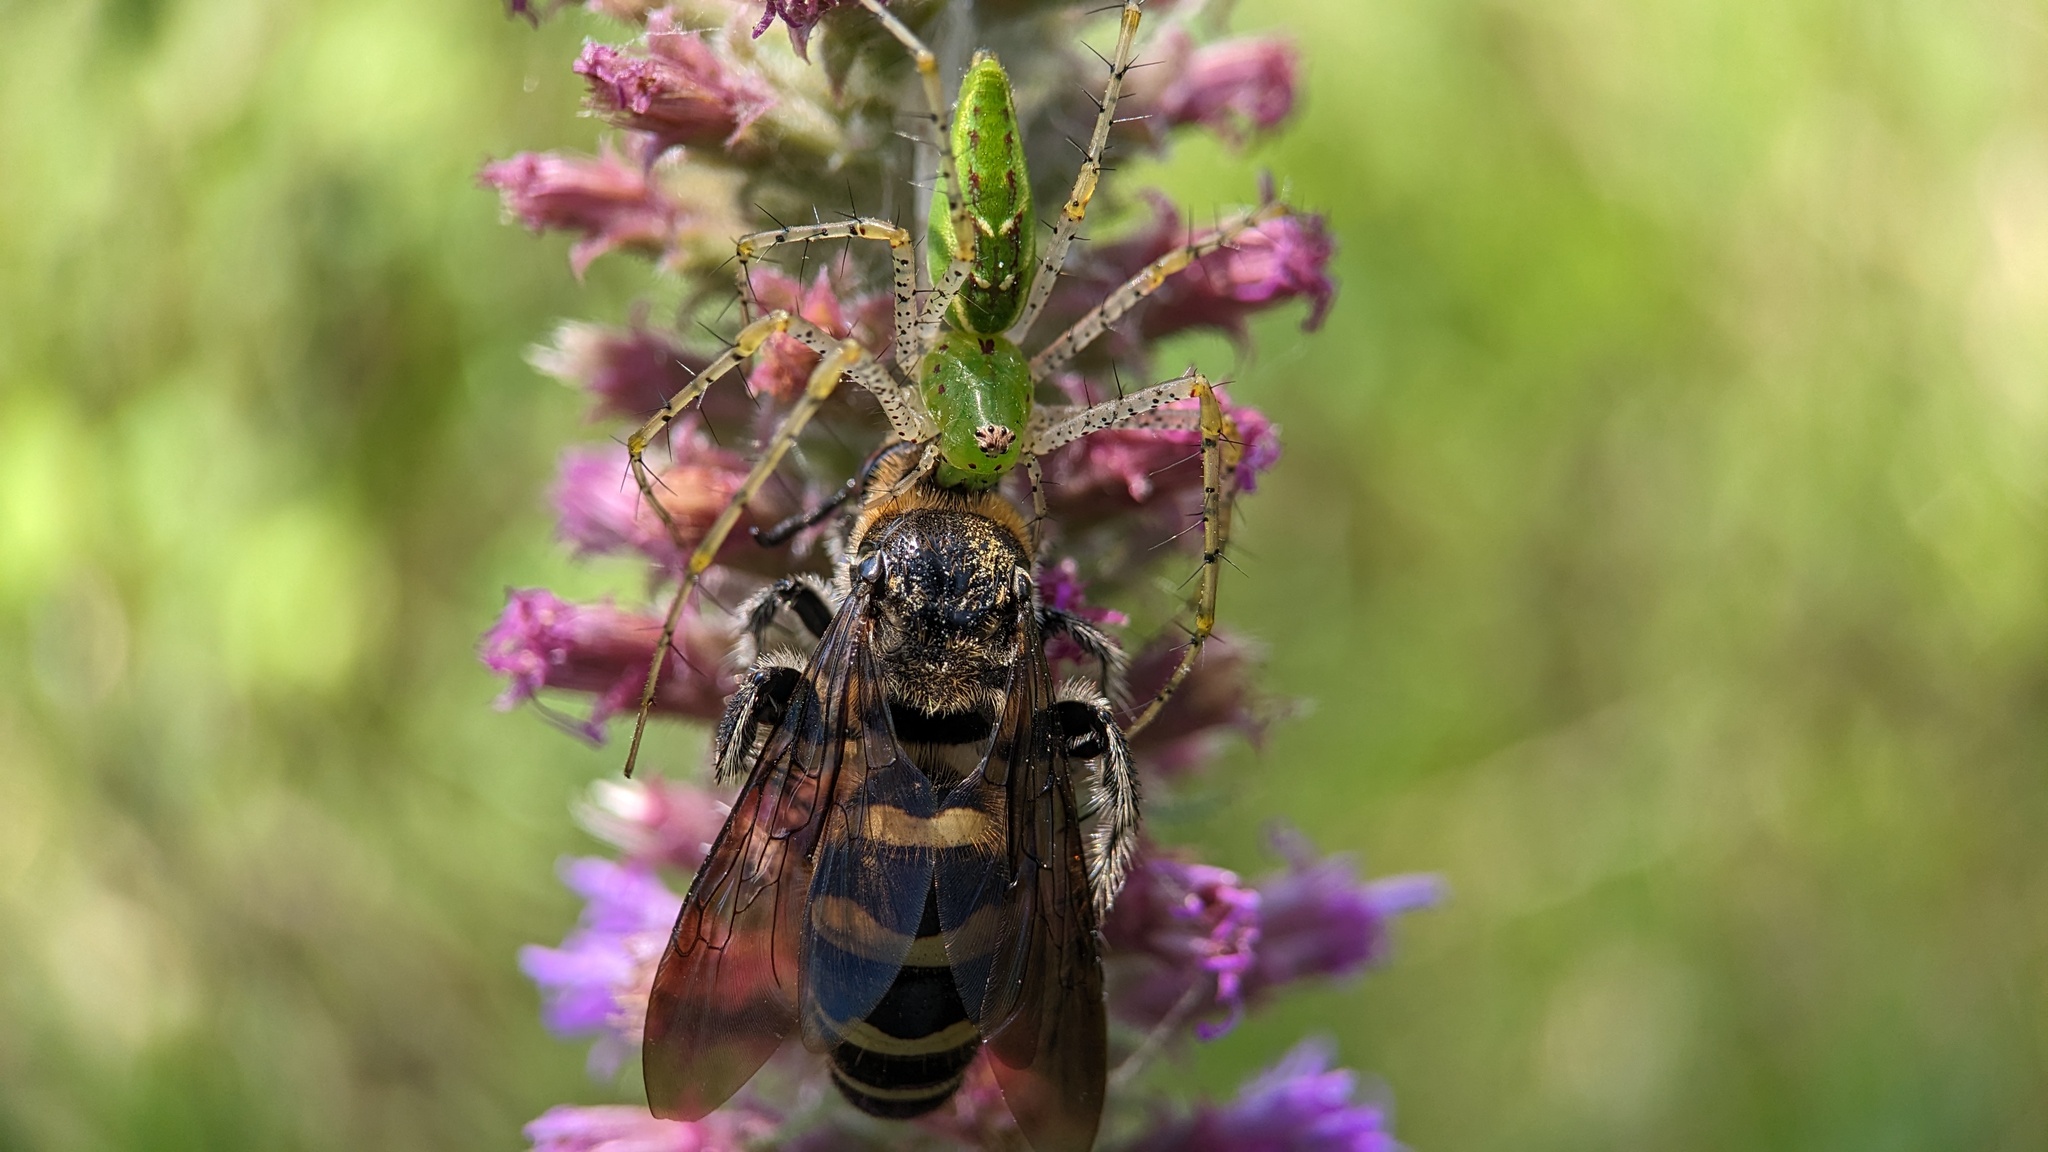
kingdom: Animalia
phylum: Arthropoda
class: Arachnida
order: Araneae
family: Oxyopidae
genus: Peucetia
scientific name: Peucetia viridans
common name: Lynx spiders
